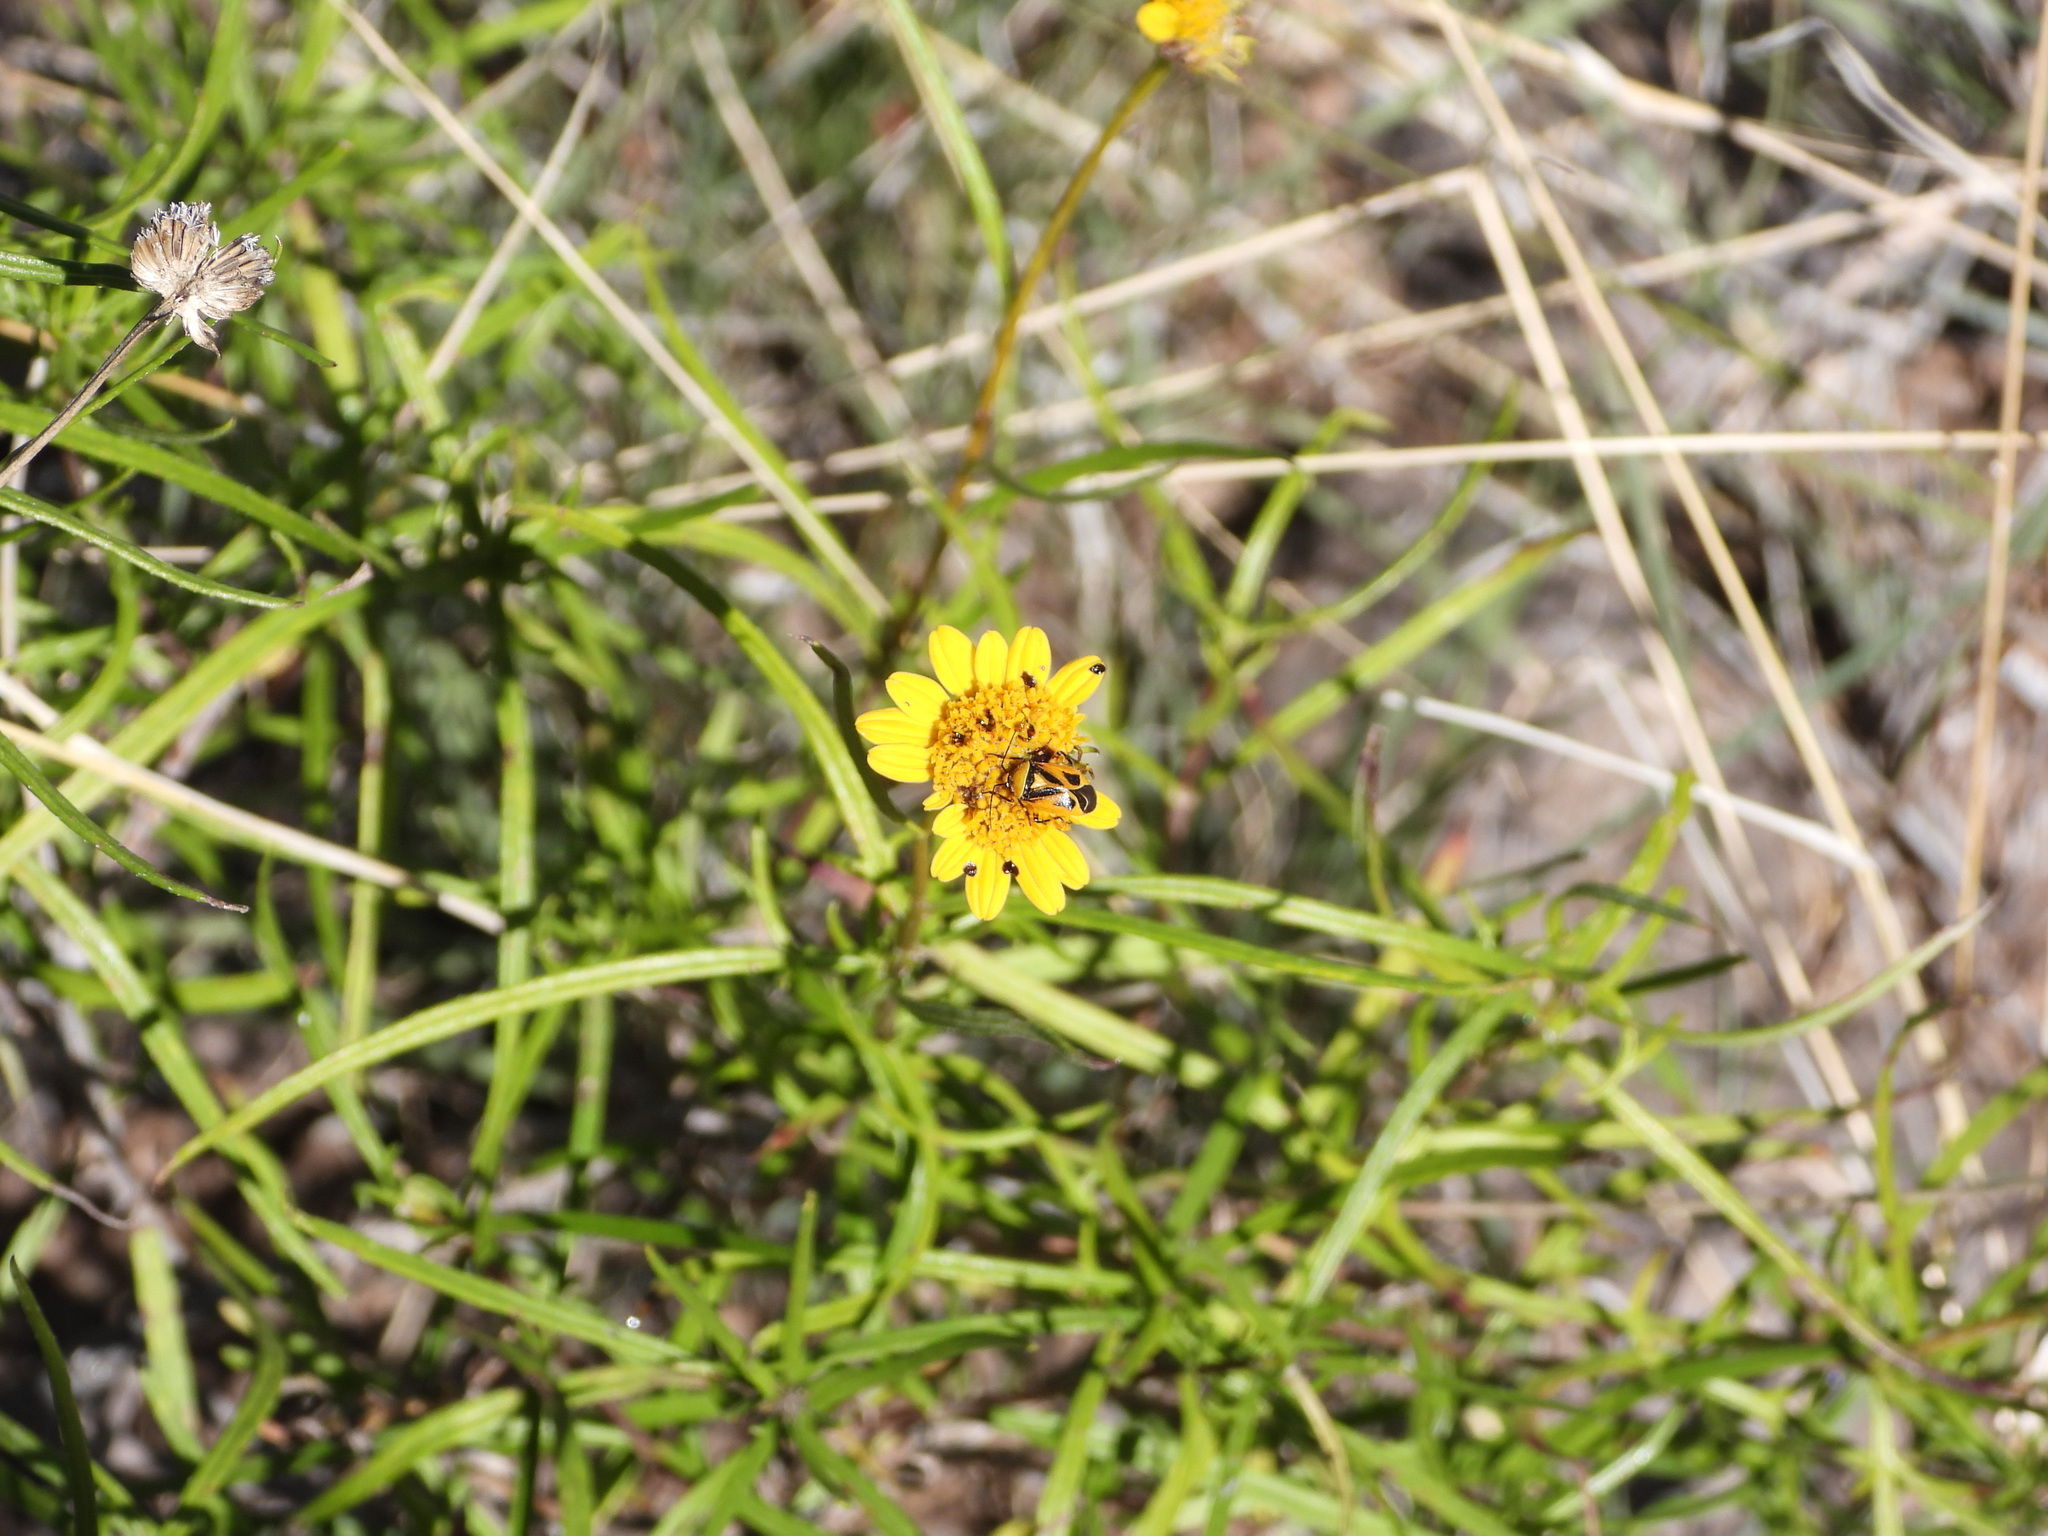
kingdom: Animalia
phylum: Arthropoda
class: Insecta
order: Hemiptera
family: Miridae
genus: Neocapsus
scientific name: Neocapsus fasciativentris
